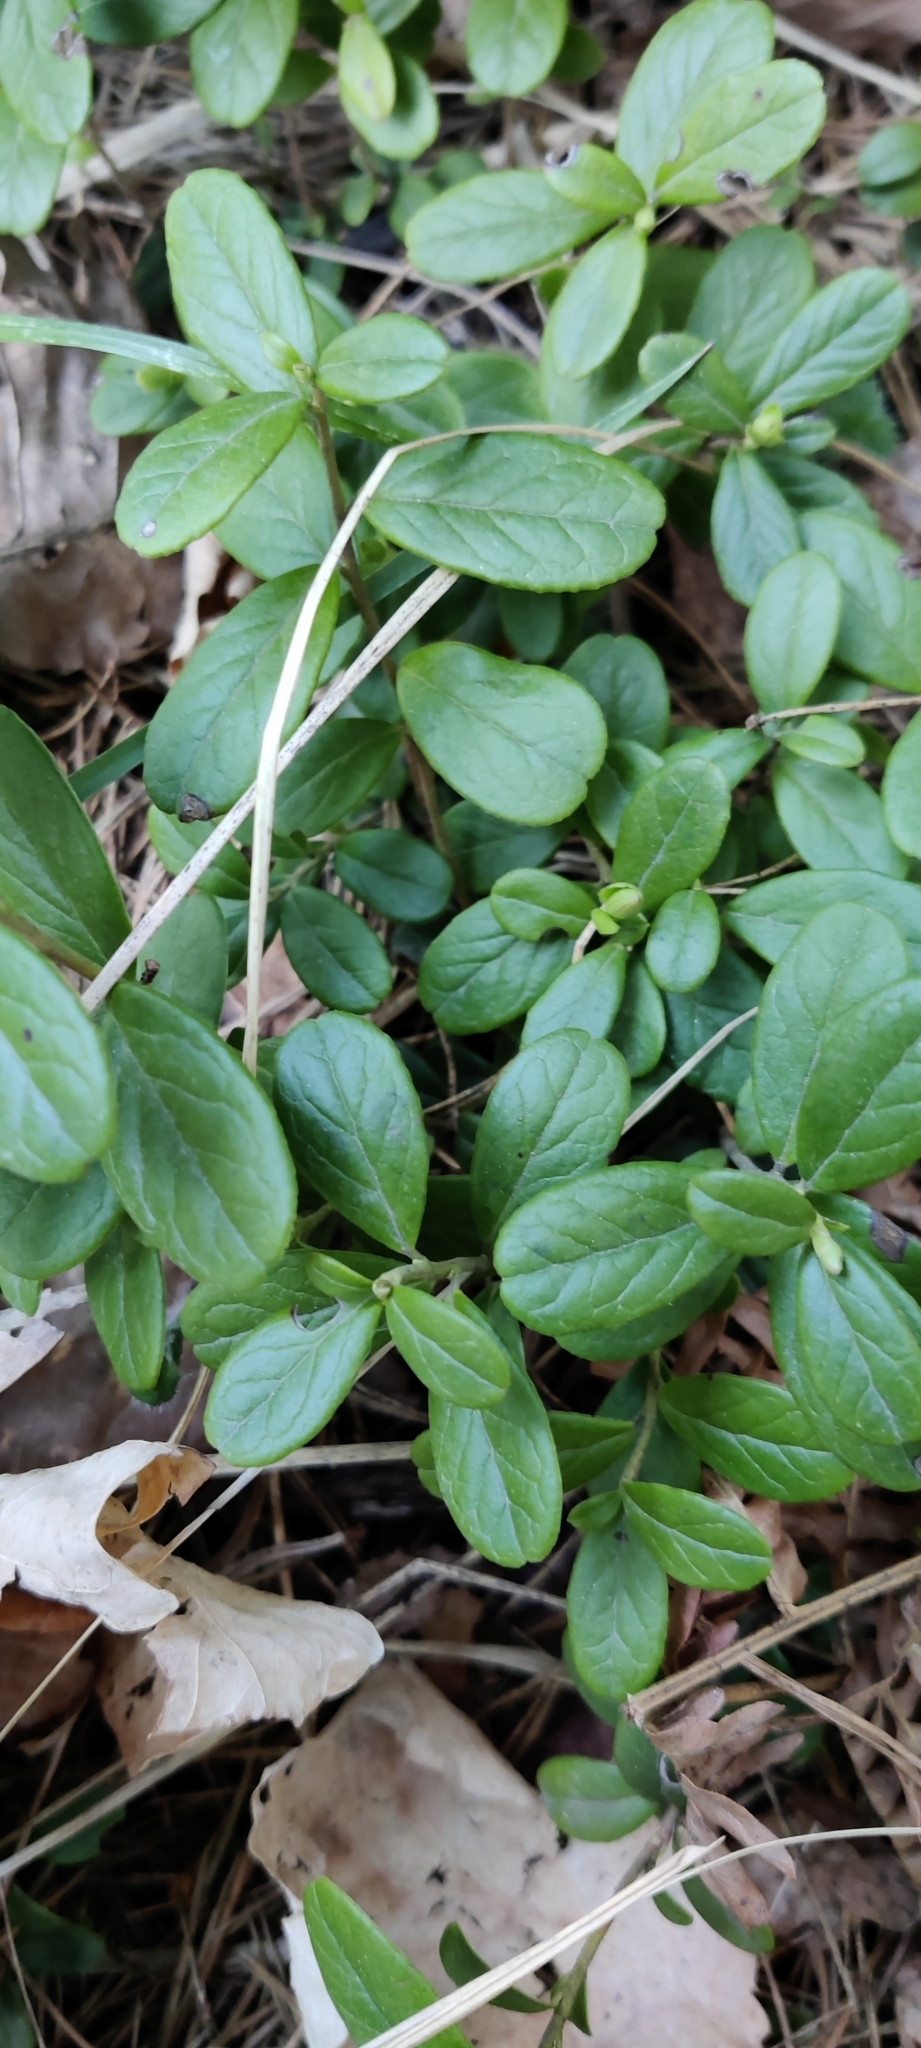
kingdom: Plantae
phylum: Tracheophyta
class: Magnoliopsida
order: Ericales
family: Ericaceae
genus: Vaccinium
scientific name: Vaccinium vitis-idaea
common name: Cowberry
